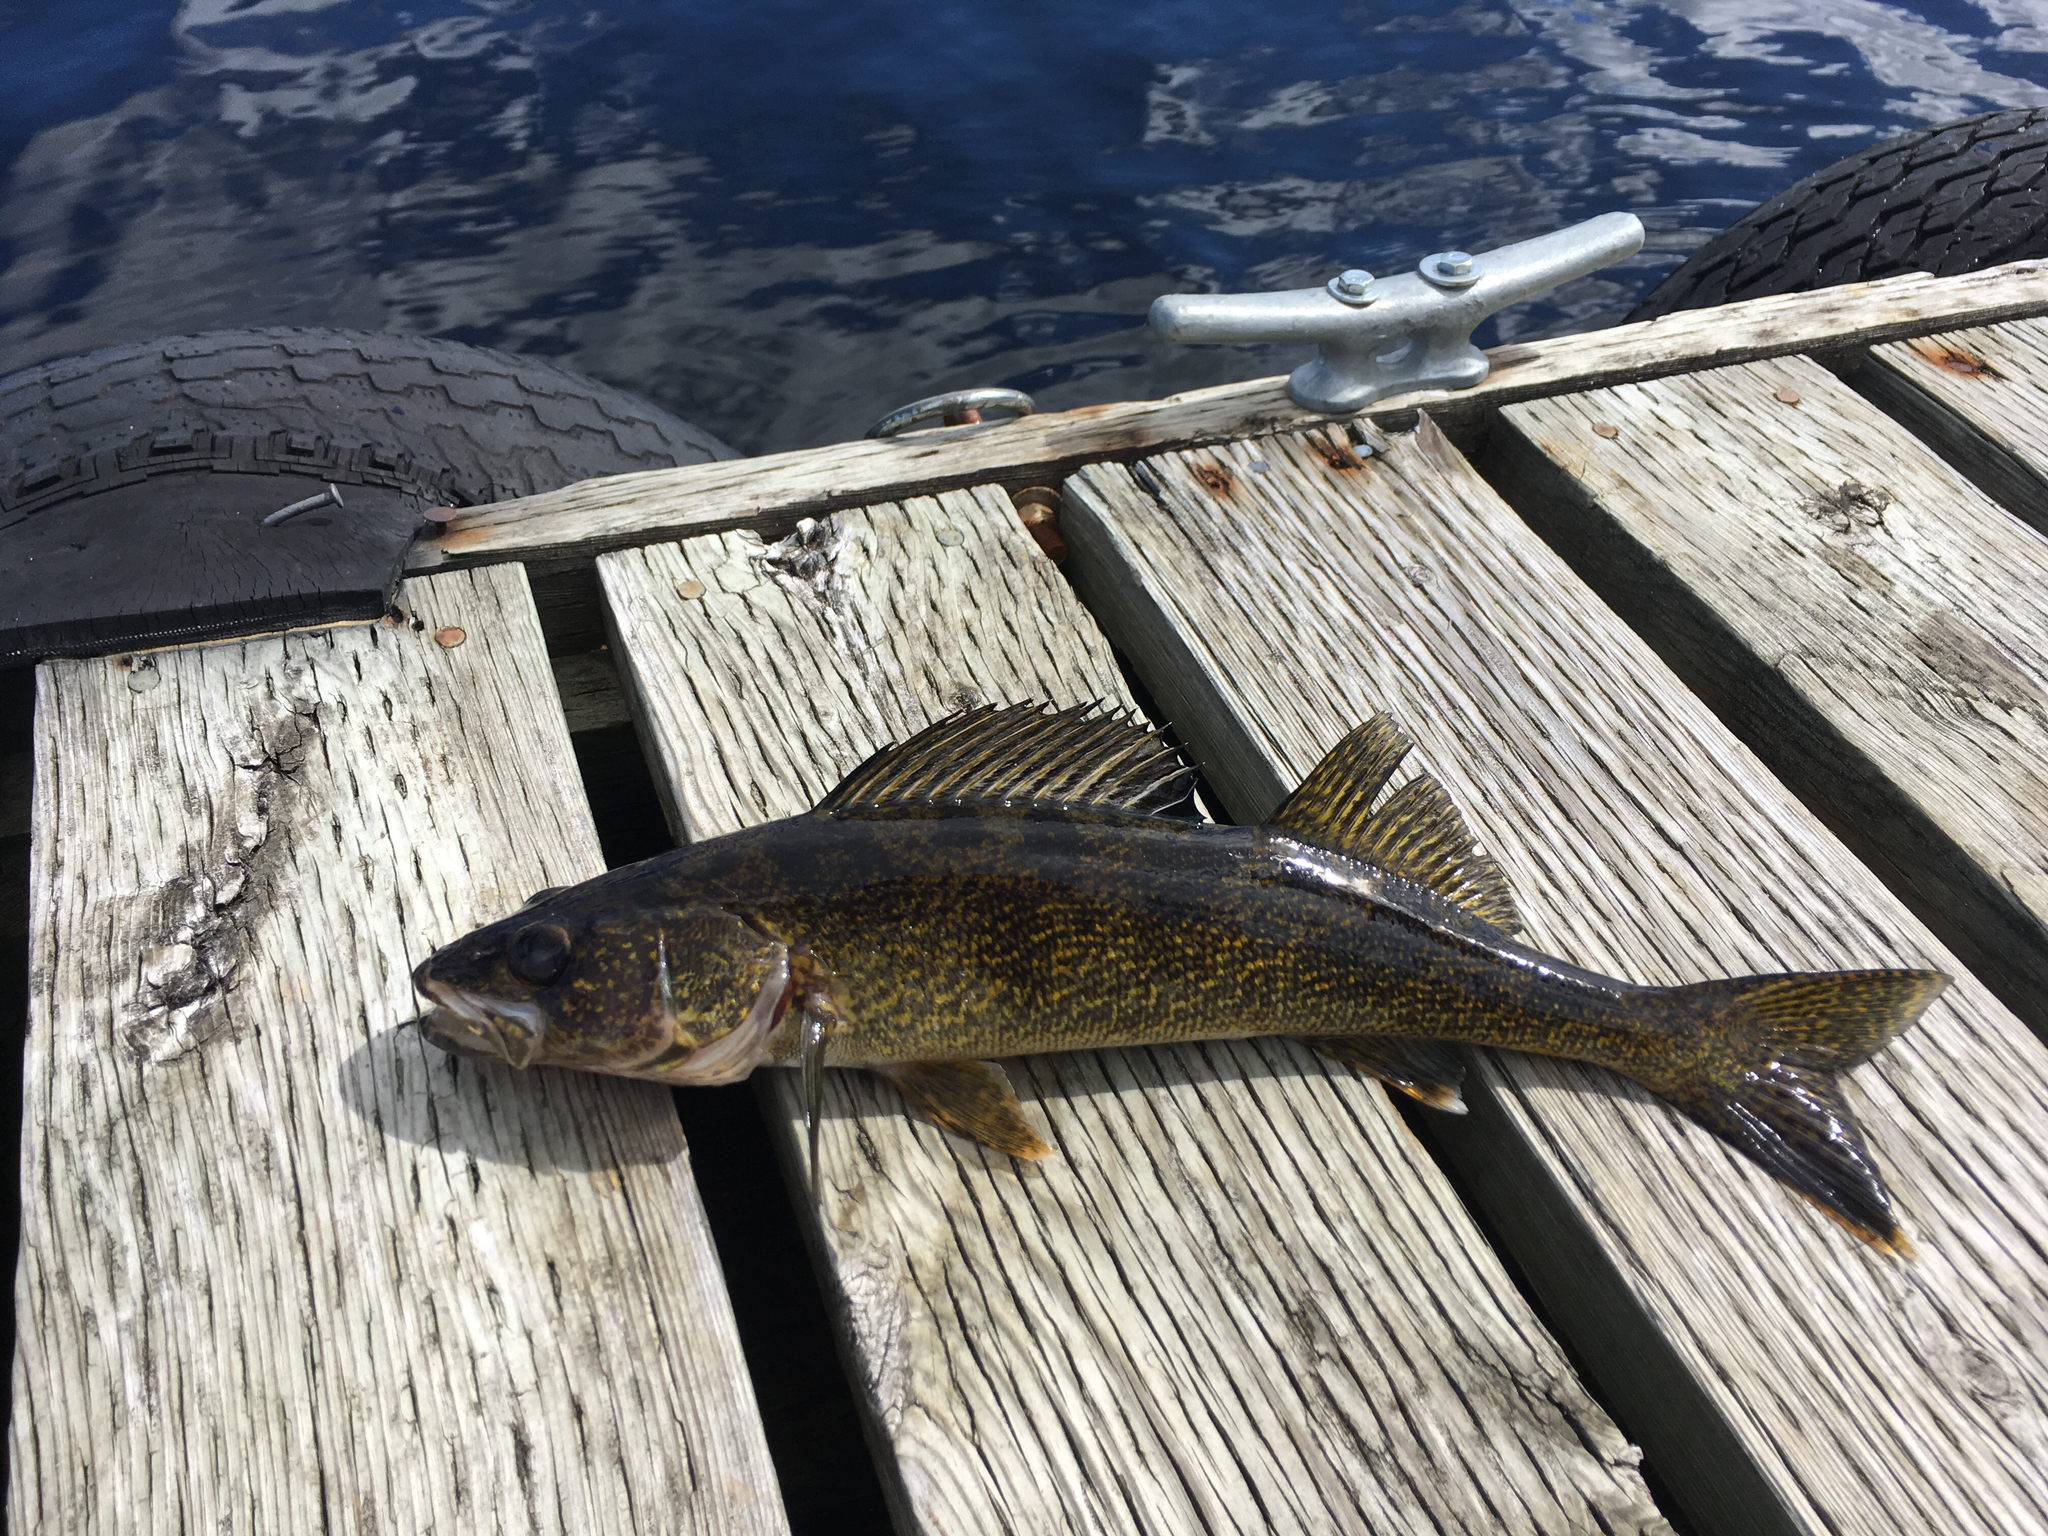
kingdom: Animalia
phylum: Chordata
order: Perciformes
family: Percidae
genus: Sander
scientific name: Sander vitreus
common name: Walleye
